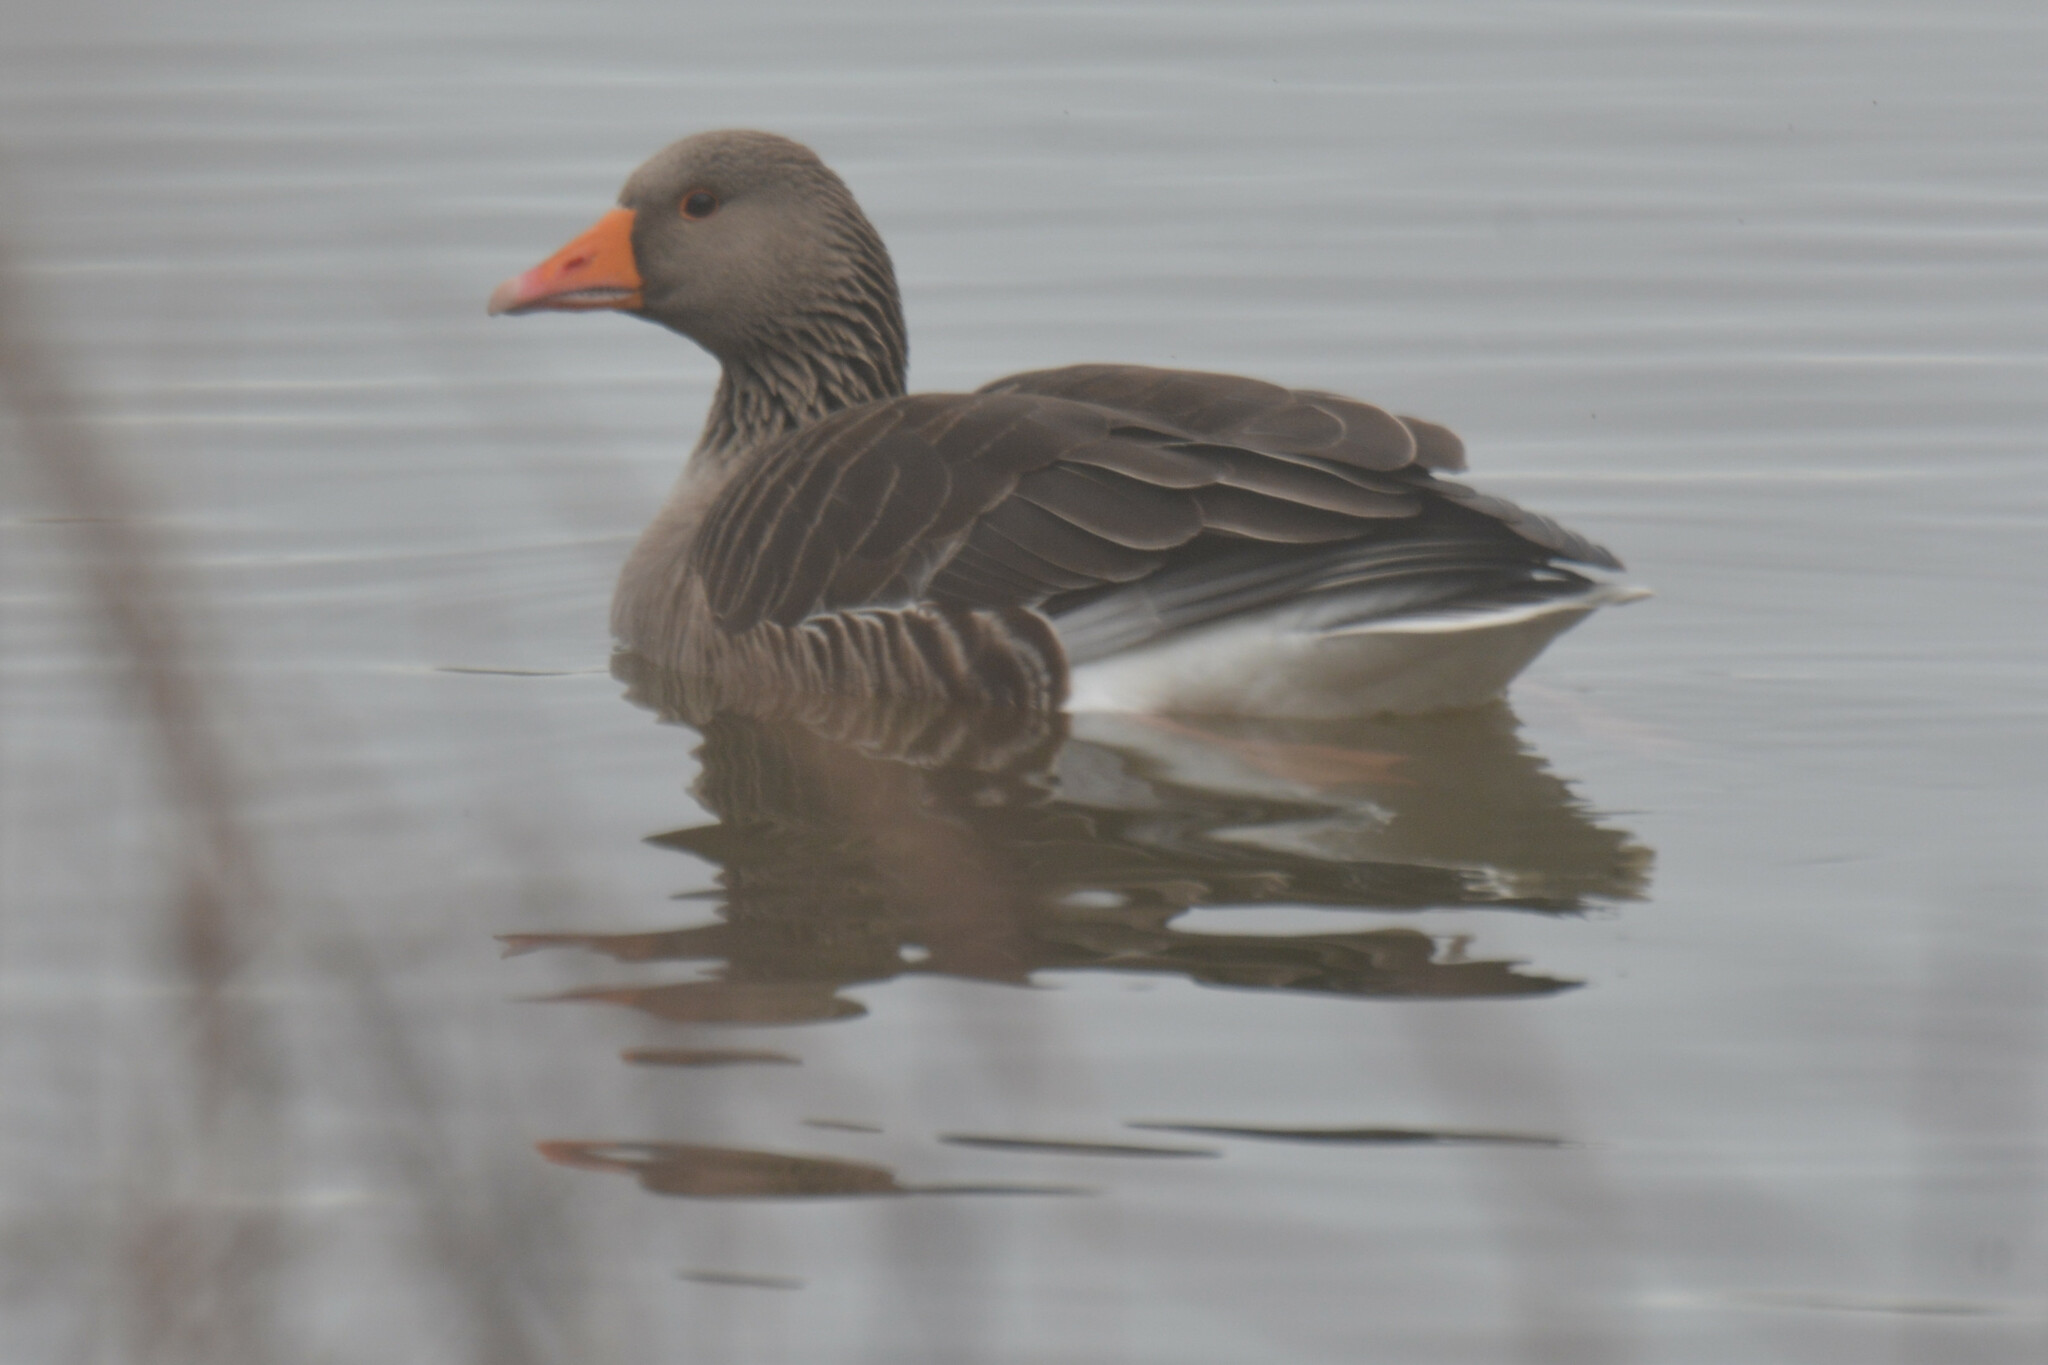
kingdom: Animalia
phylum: Chordata
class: Aves
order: Anseriformes
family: Anatidae
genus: Anser
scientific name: Anser anser
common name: Greylag goose
